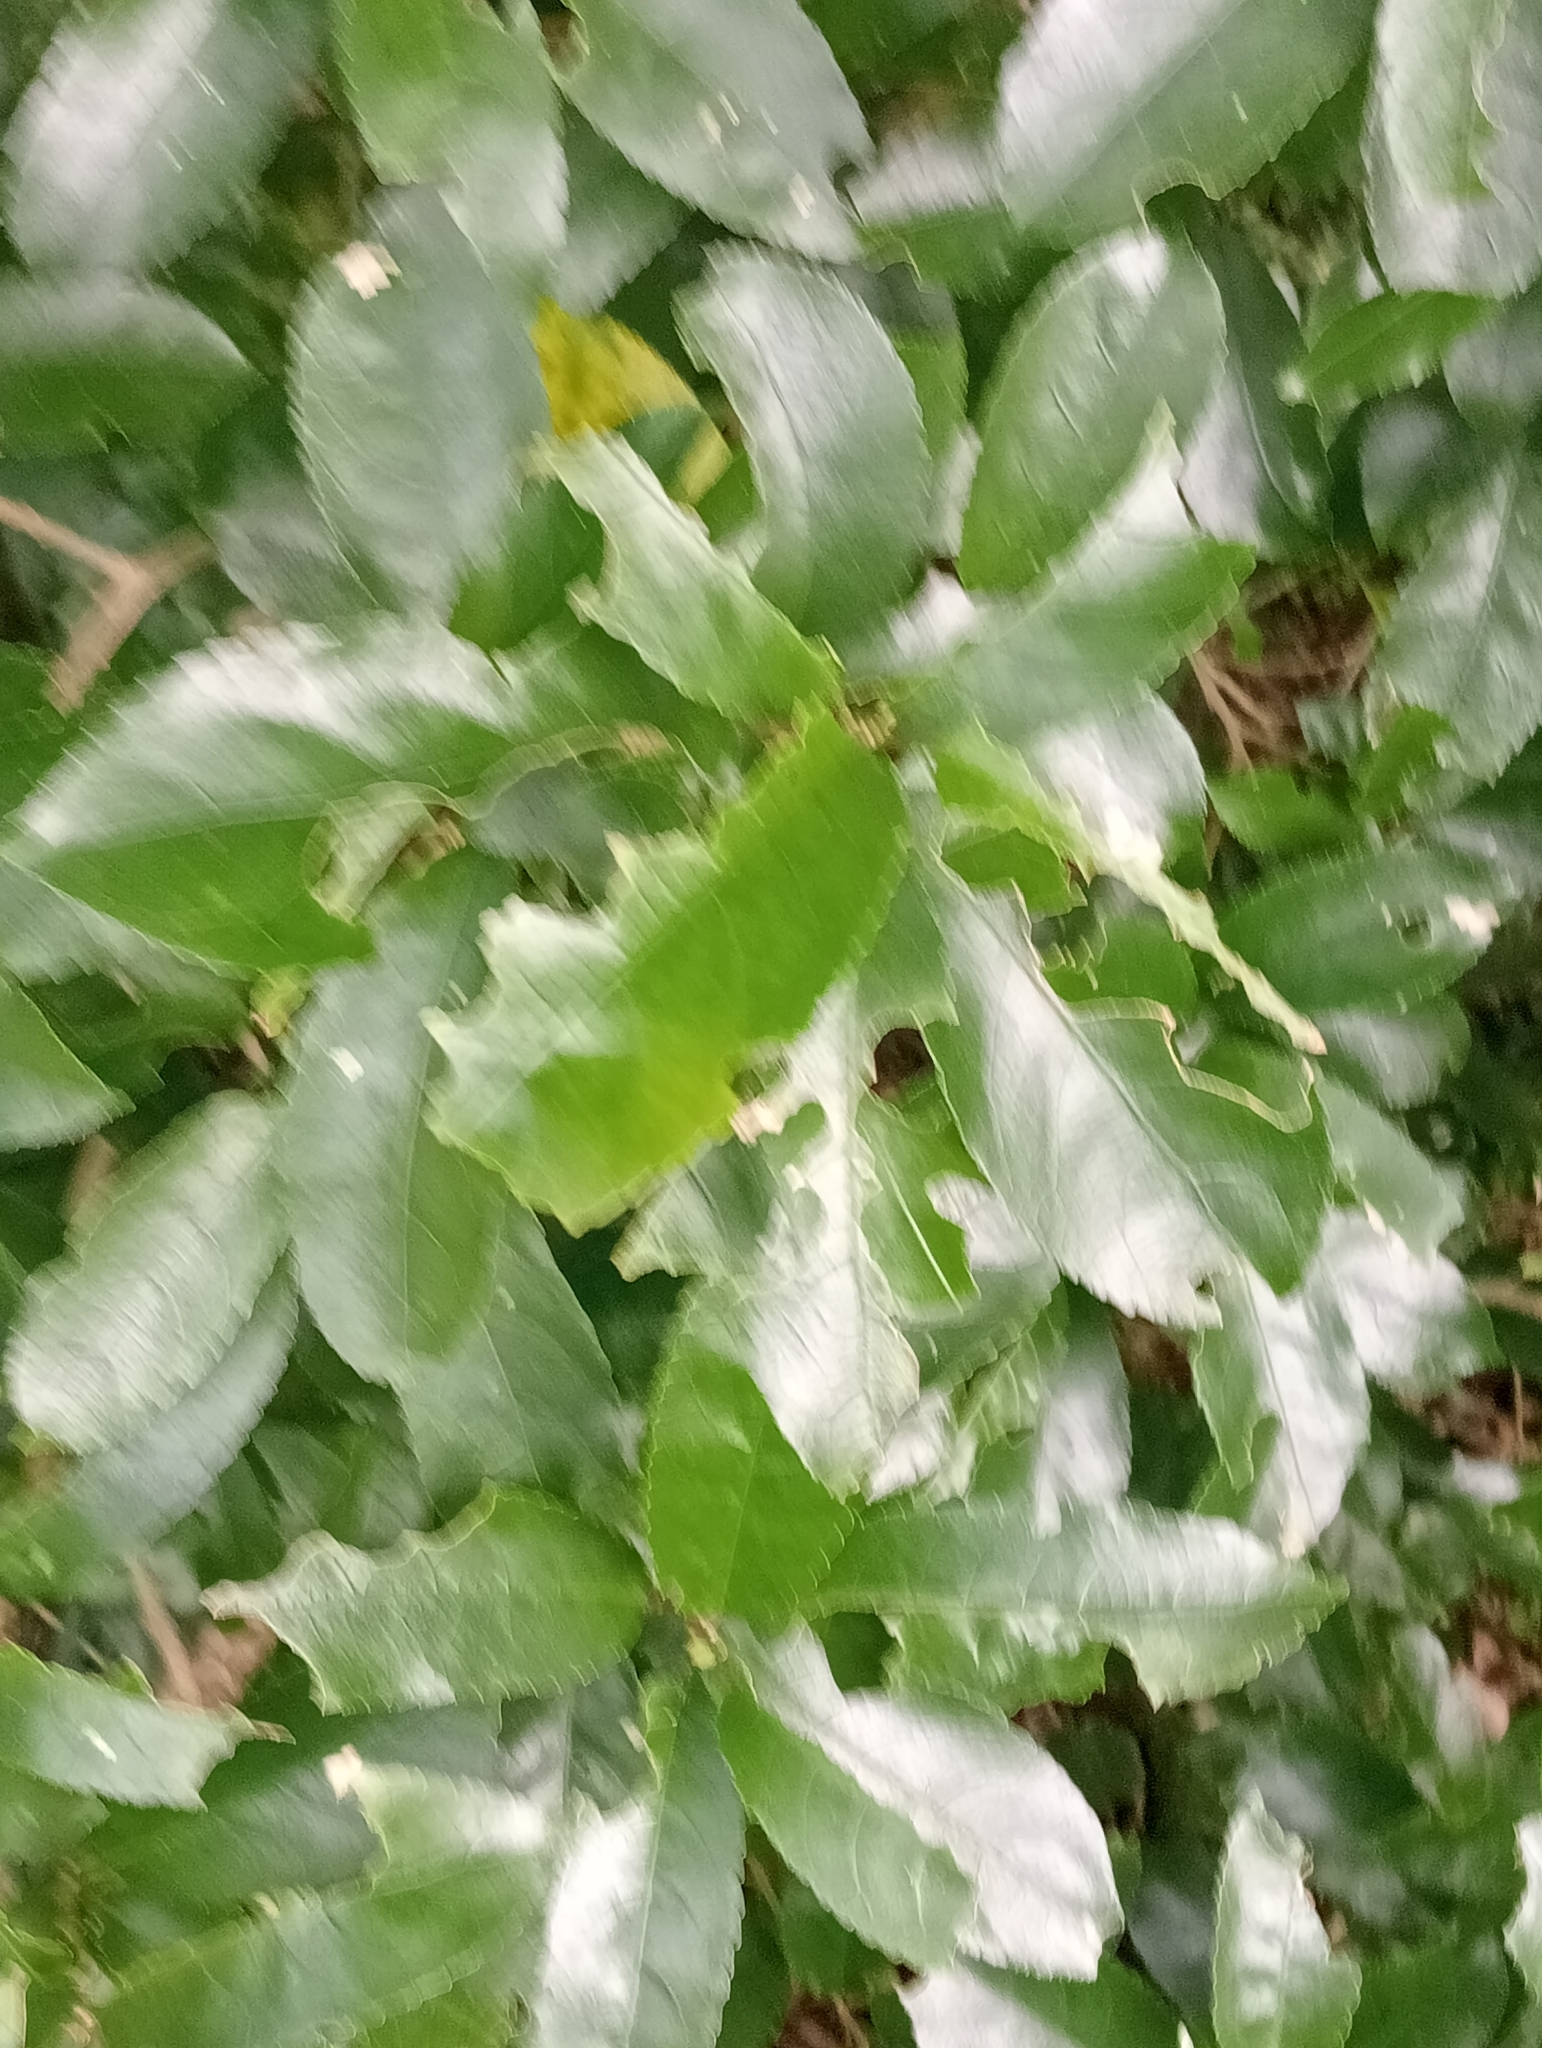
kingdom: Plantae
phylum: Tracheophyta
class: Magnoliopsida
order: Malpighiales
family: Violaceae
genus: Melicytus
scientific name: Melicytus ramiflorus
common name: Mahoe
